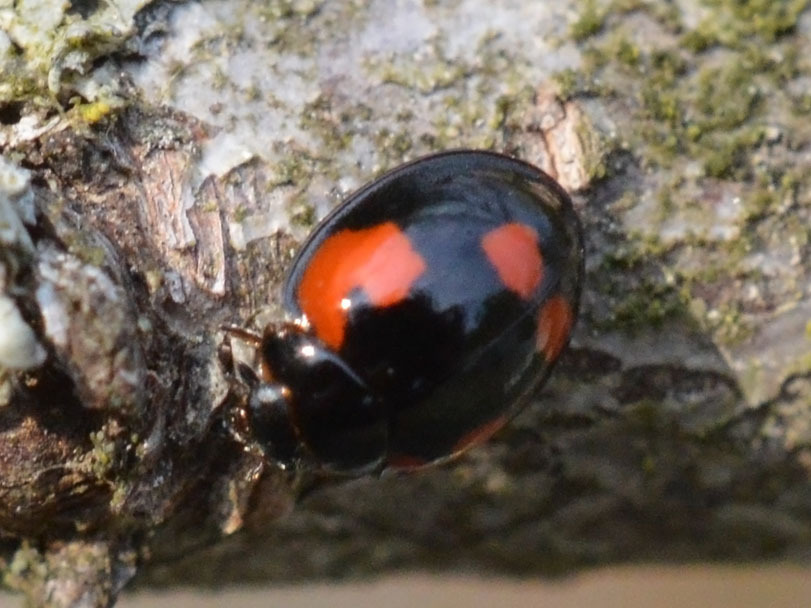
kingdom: Animalia
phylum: Arthropoda
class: Insecta
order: Coleoptera
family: Coccinellidae
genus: Brumus
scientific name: Brumus quadripustulatus
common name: Ladybird beetle
